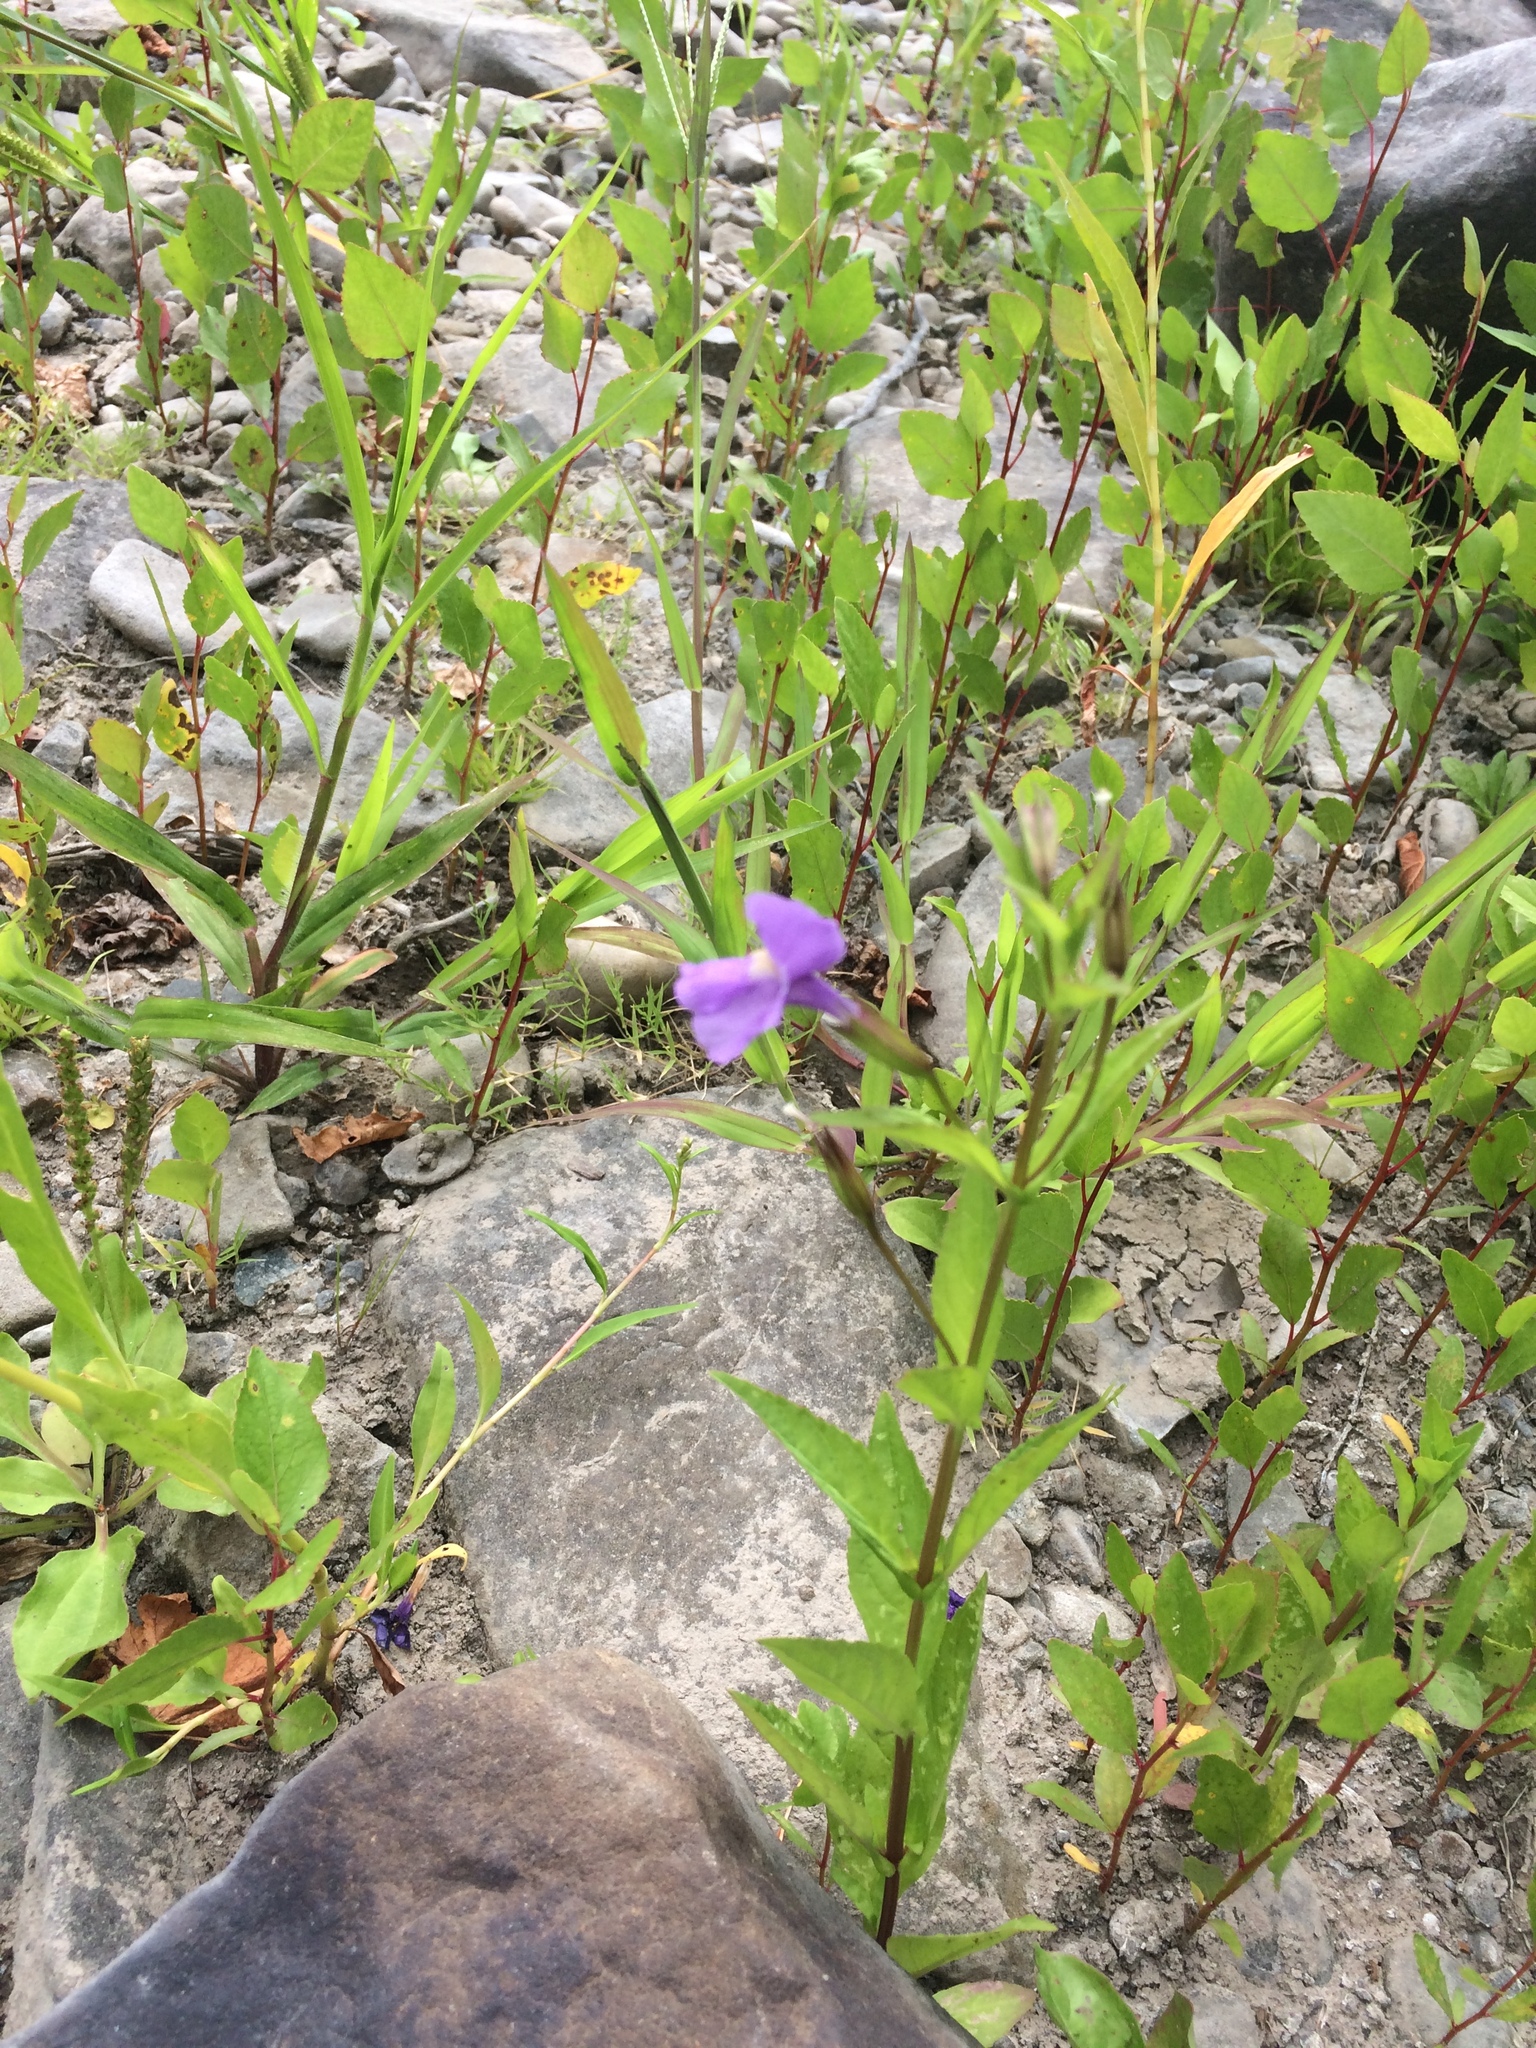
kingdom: Plantae
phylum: Tracheophyta
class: Magnoliopsida
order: Lamiales
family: Phrymaceae
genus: Mimulus
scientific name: Mimulus ringens
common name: Allegheny monkeyflower
